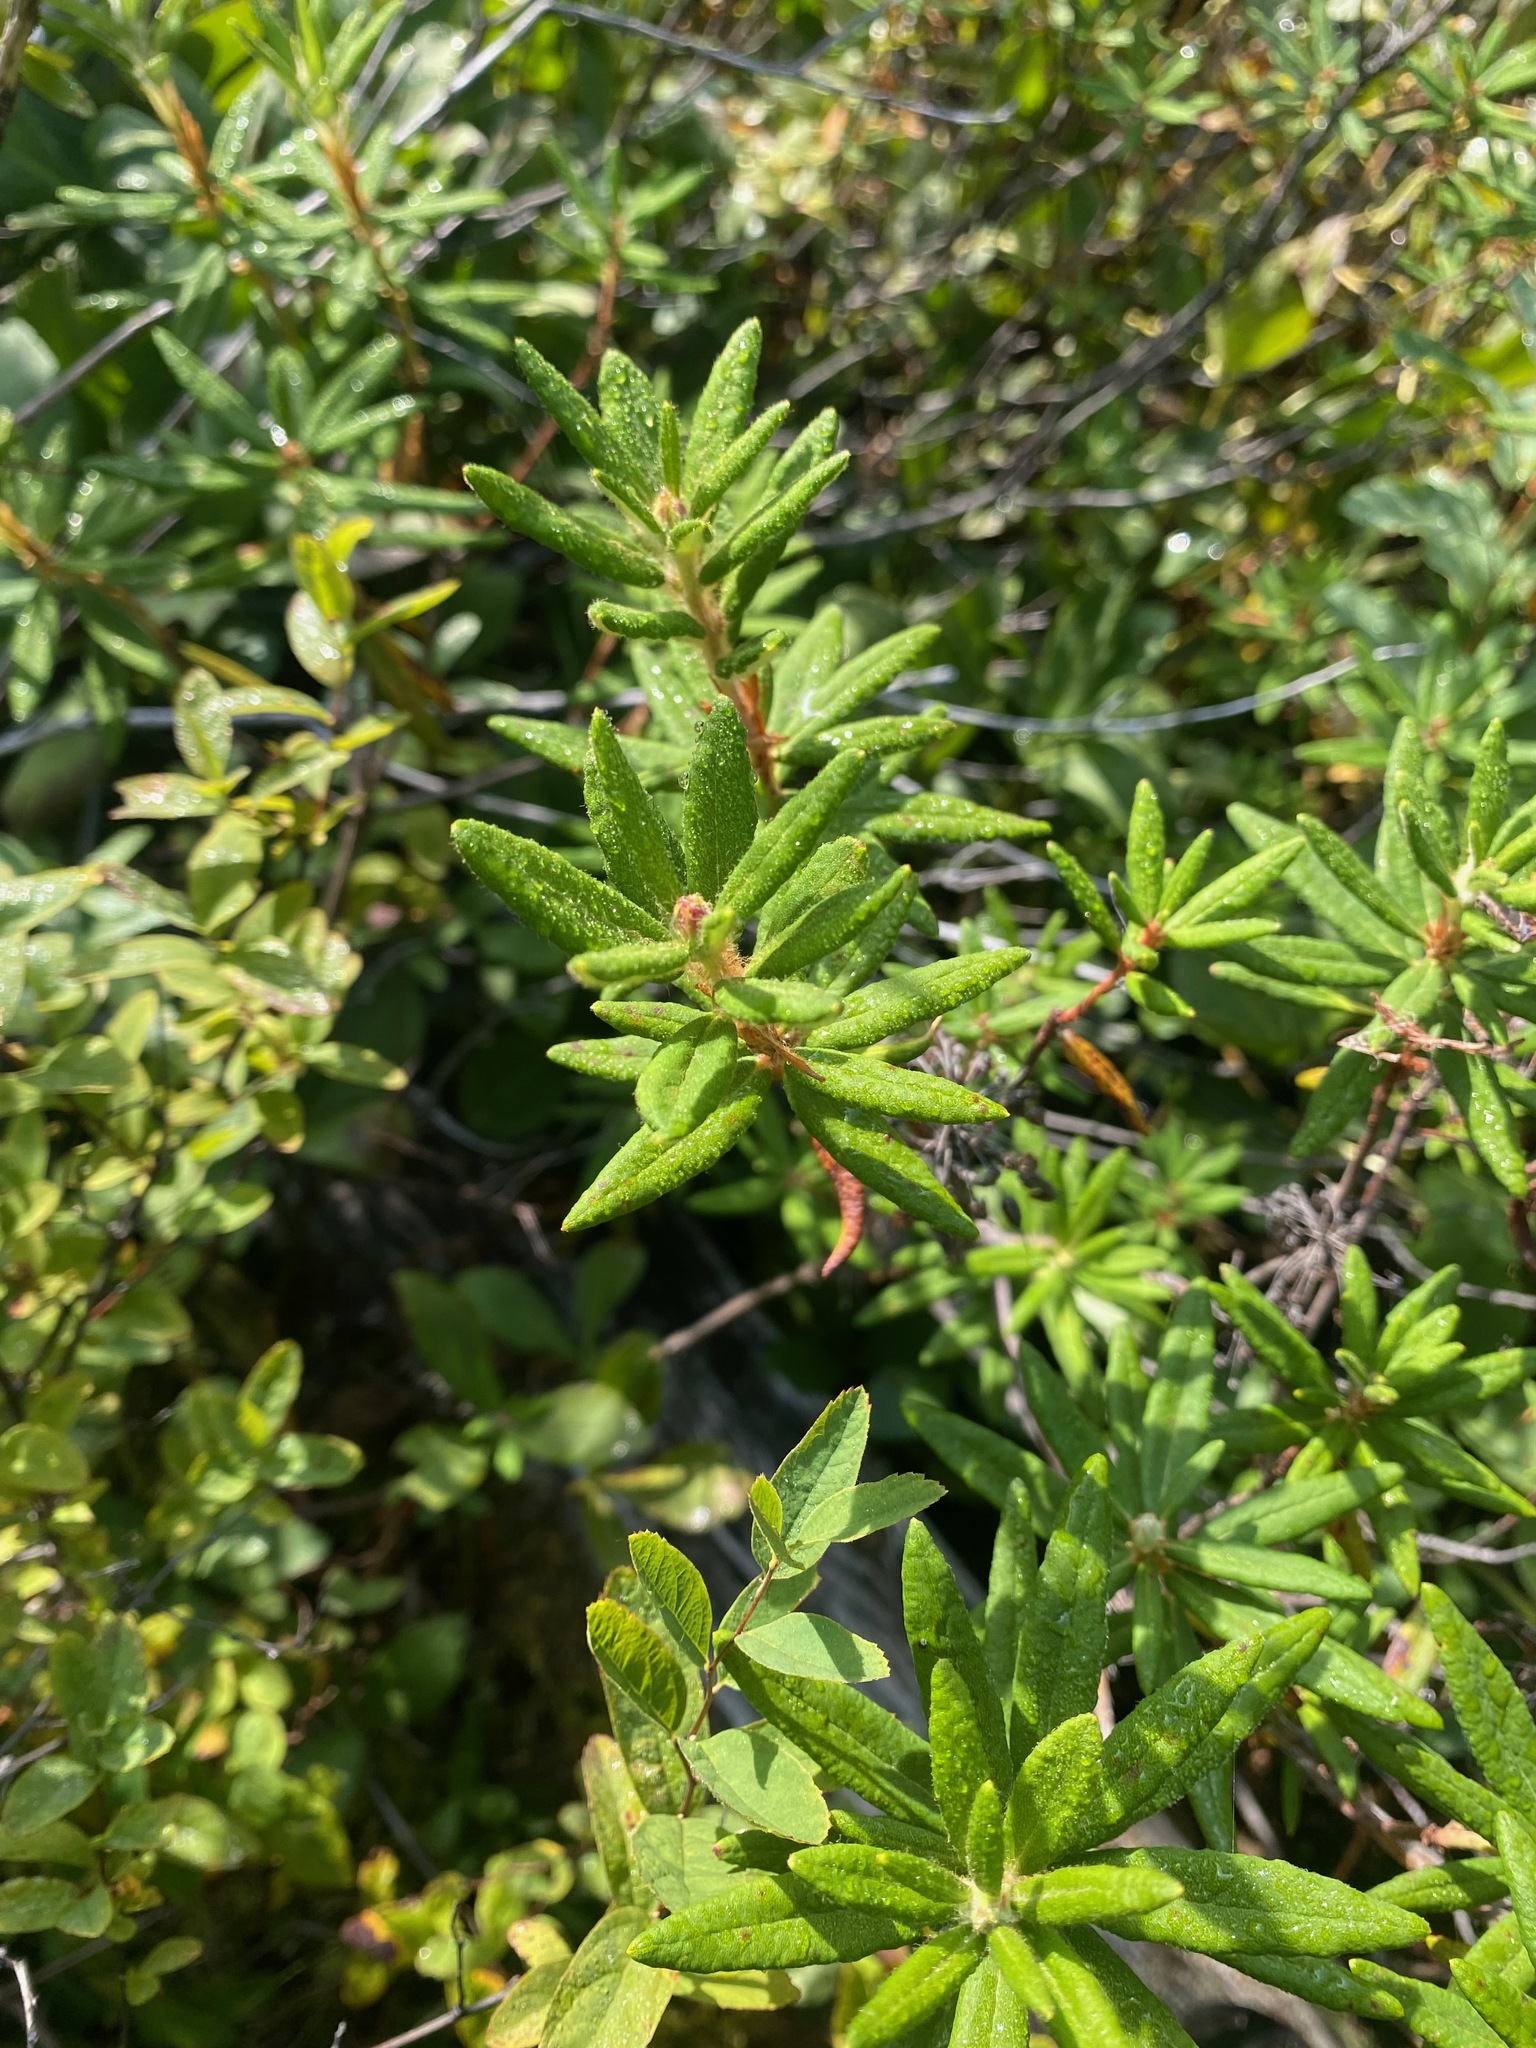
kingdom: Plantae
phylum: Tracheophyta
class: Magnoliopsida
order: Ericales
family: Ericaceae
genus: Rhododendron
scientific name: Rhododendron groenlandicum
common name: Bog labrador tea
